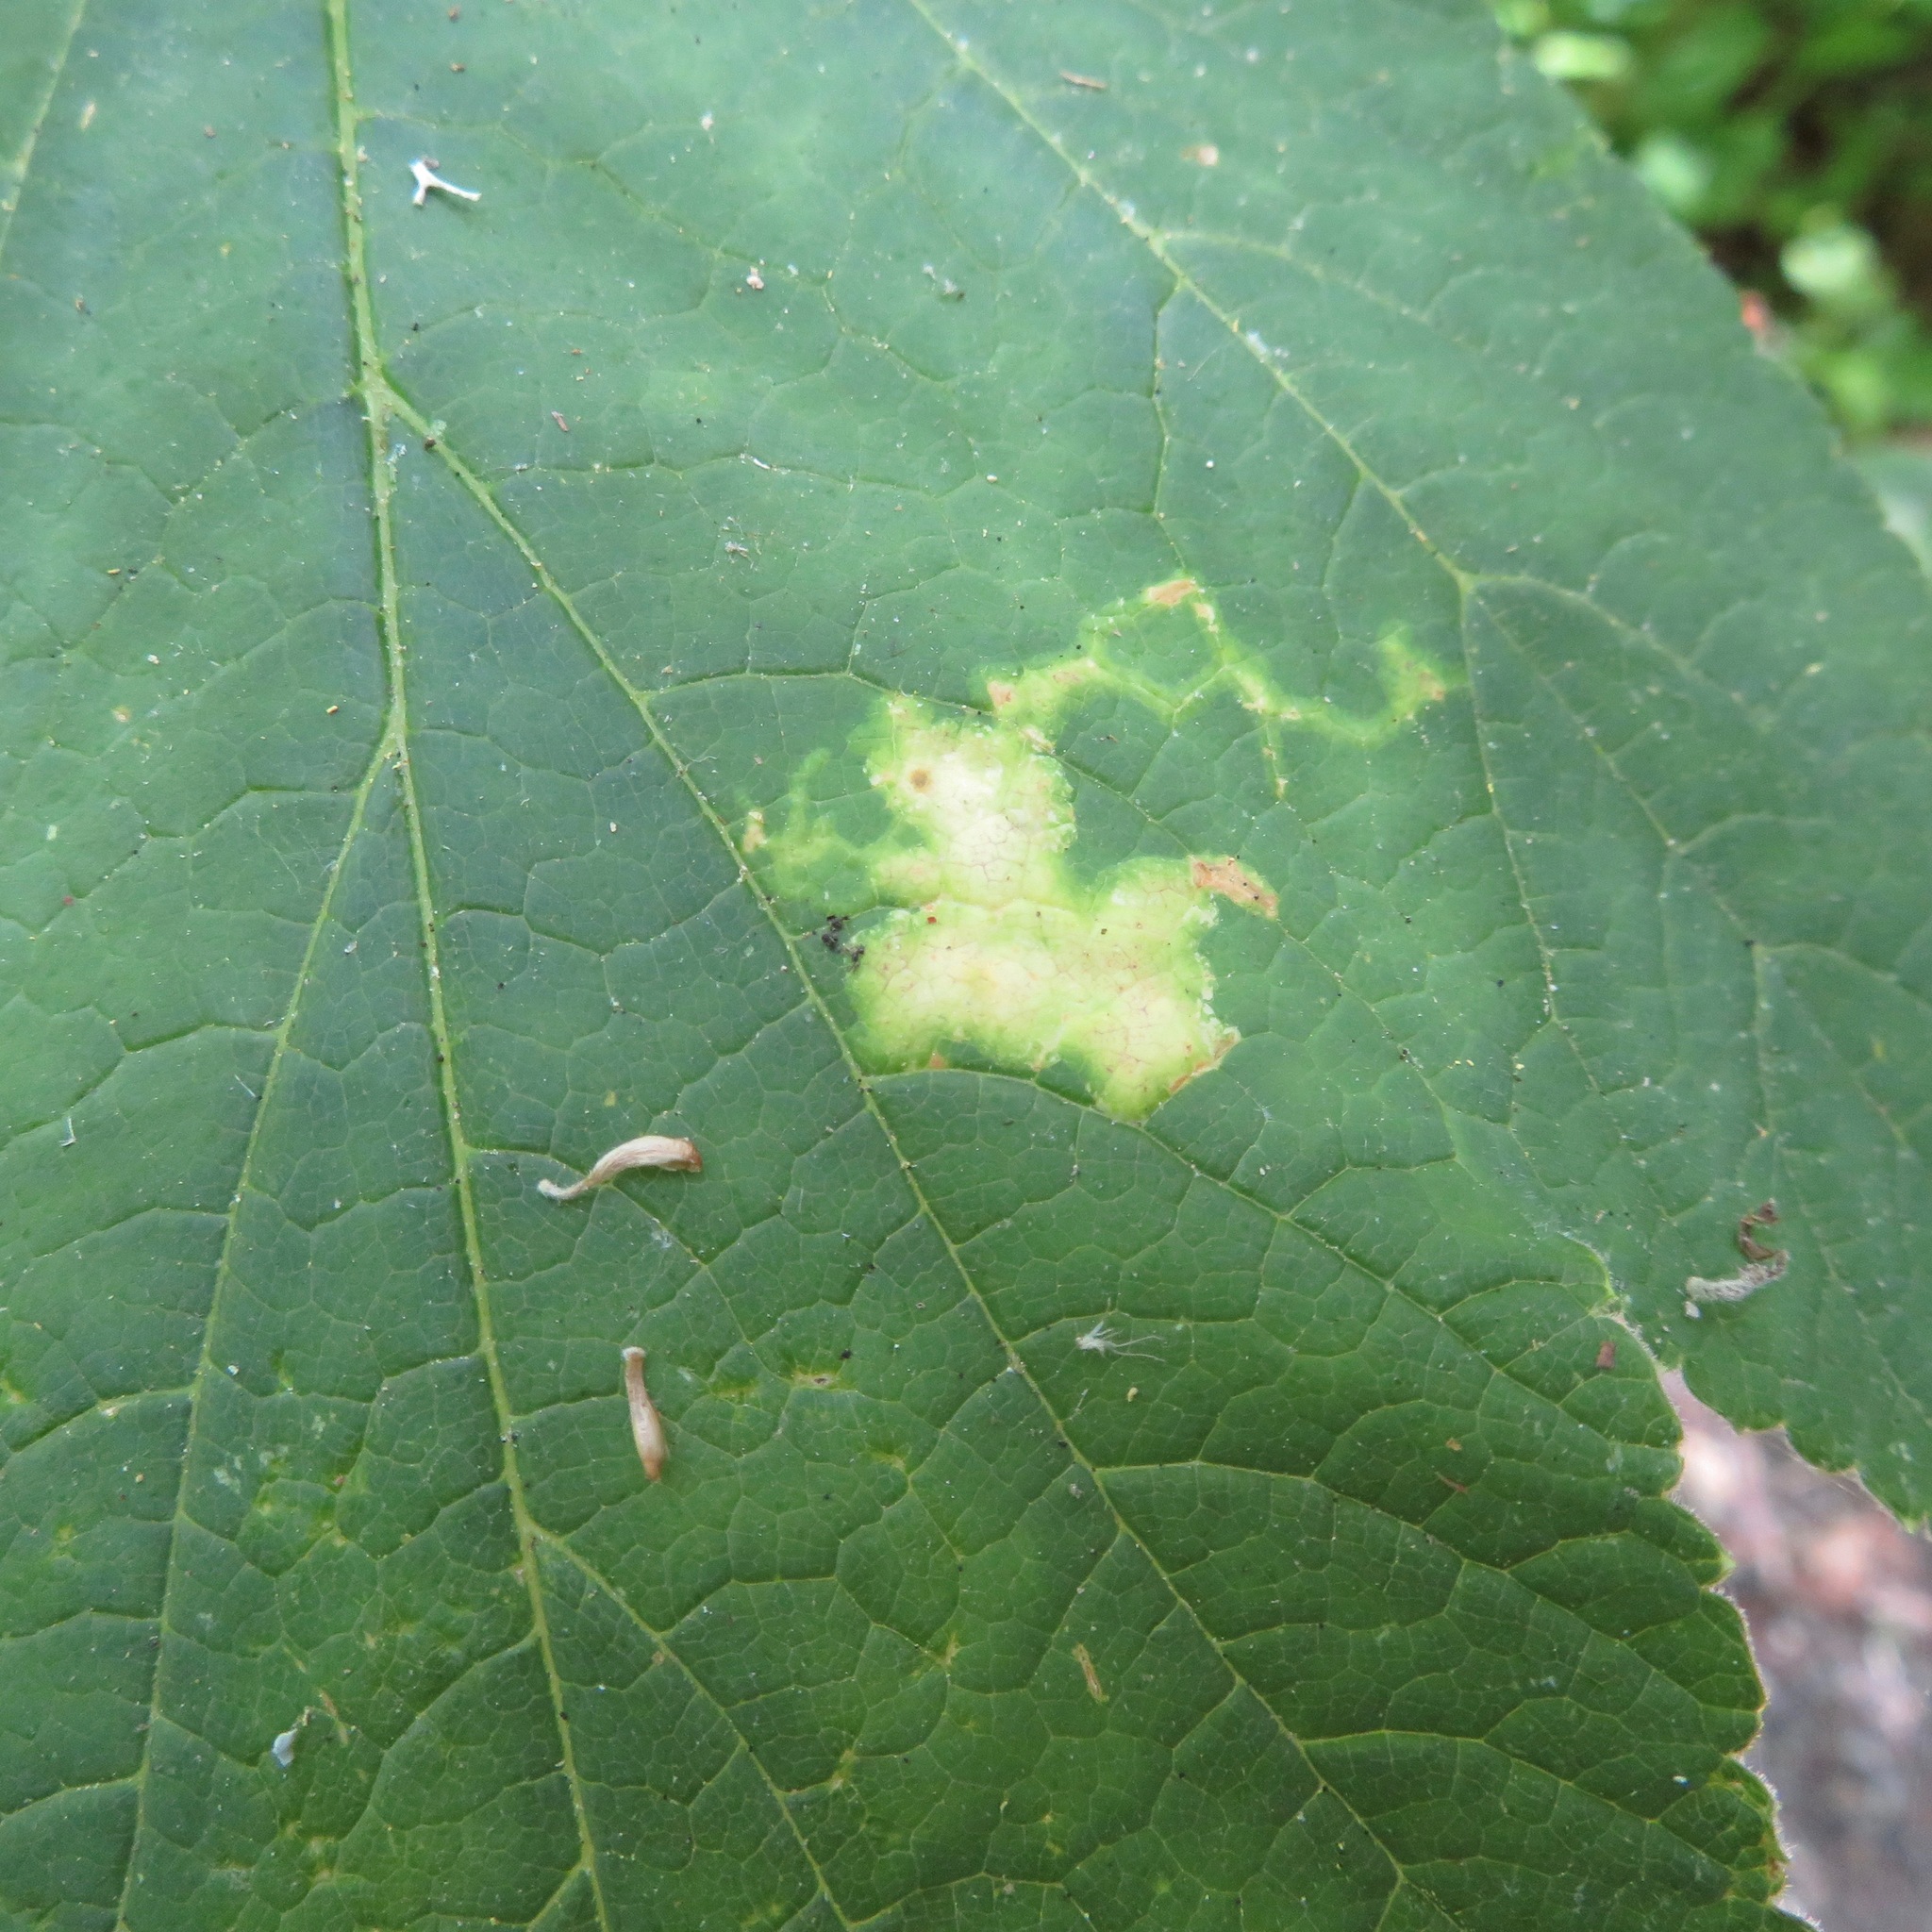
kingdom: Animalia
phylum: Arthropoda
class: Insecta
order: Diptera
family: Agromyzidae
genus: Phytomyza
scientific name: Phytomyza tlingitica
